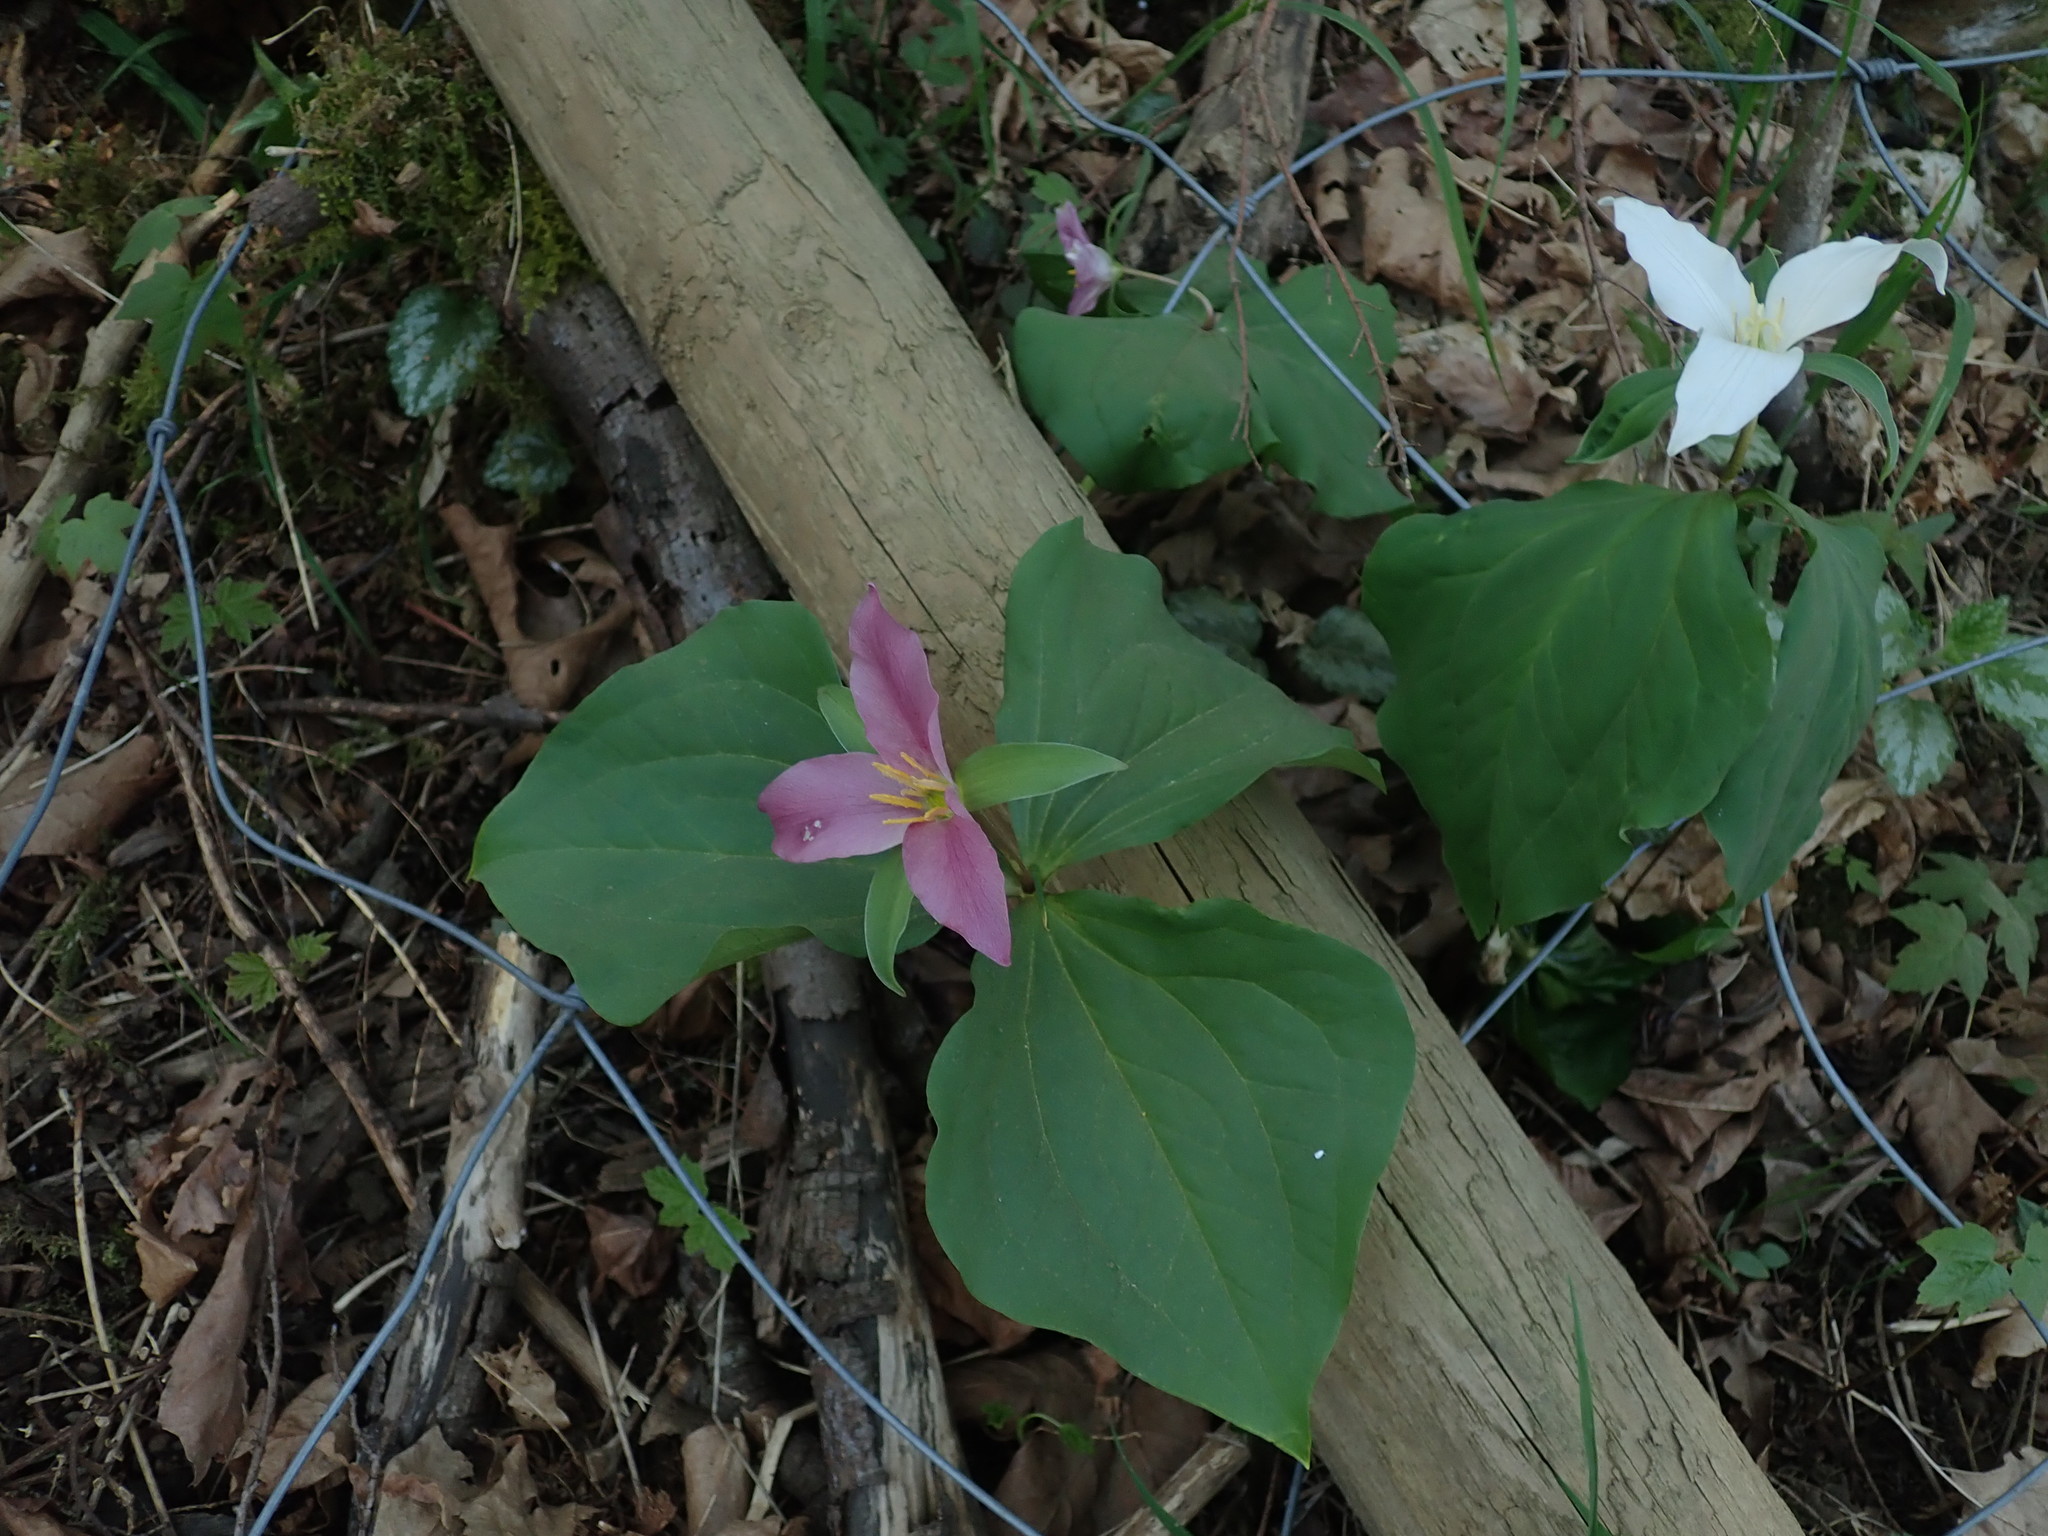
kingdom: Plantae
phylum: Tracheophyta
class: Liliopsida
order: Liliales
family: Melanthiaceae
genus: Trillium
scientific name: Trillium ovatum
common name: Pacific trillium
